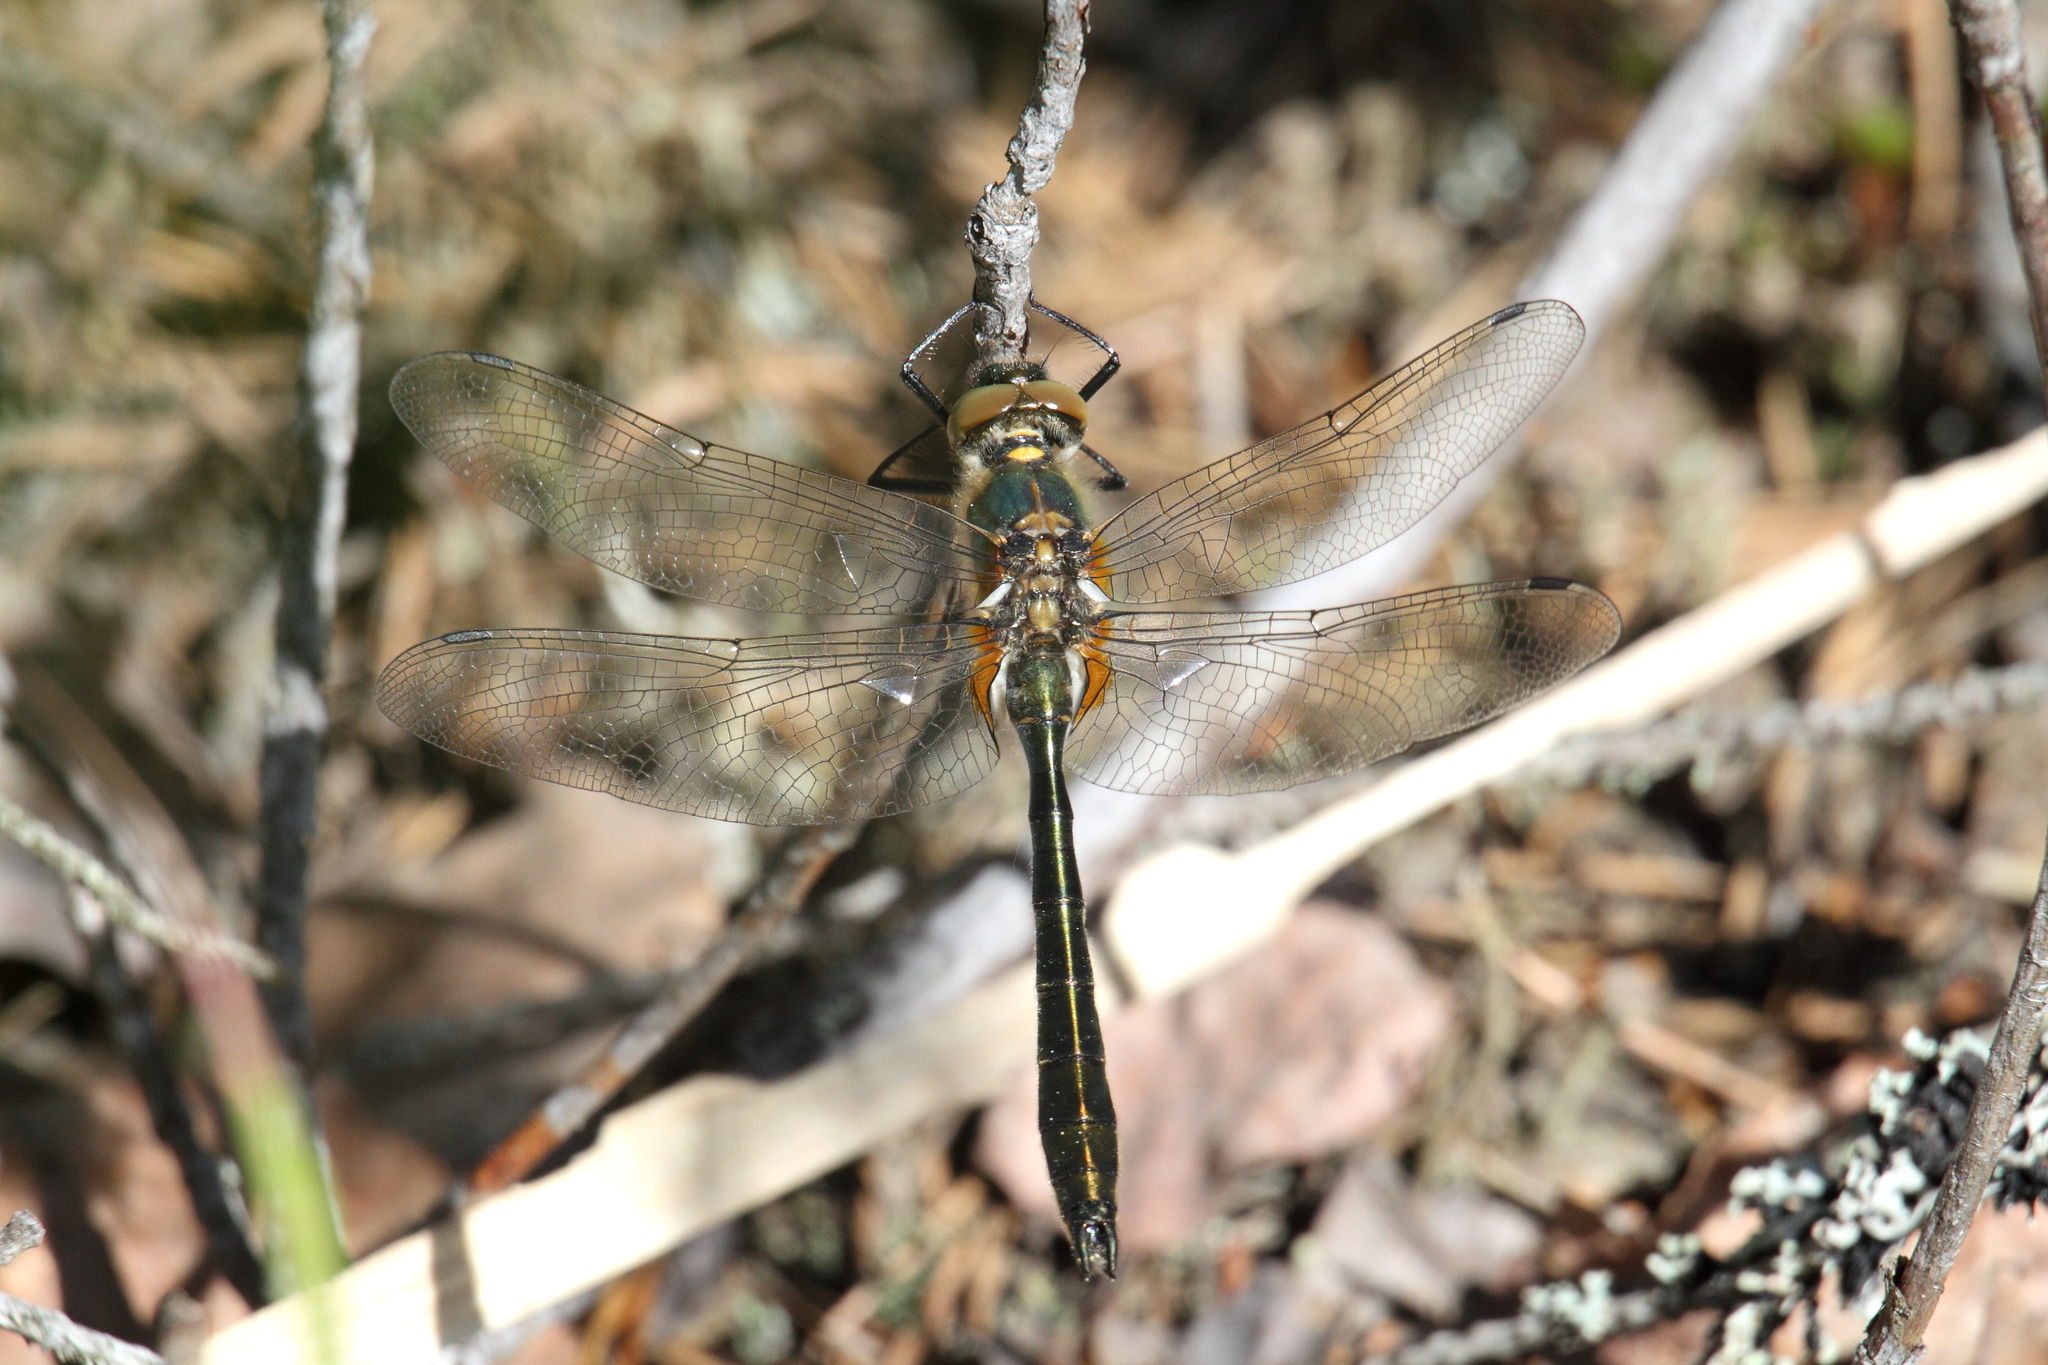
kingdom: Animalia
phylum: Arthropoda
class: Insecta
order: Odonata
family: Corduliidae
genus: Cordulia
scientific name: Cordulia aenea
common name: Downy emerald
